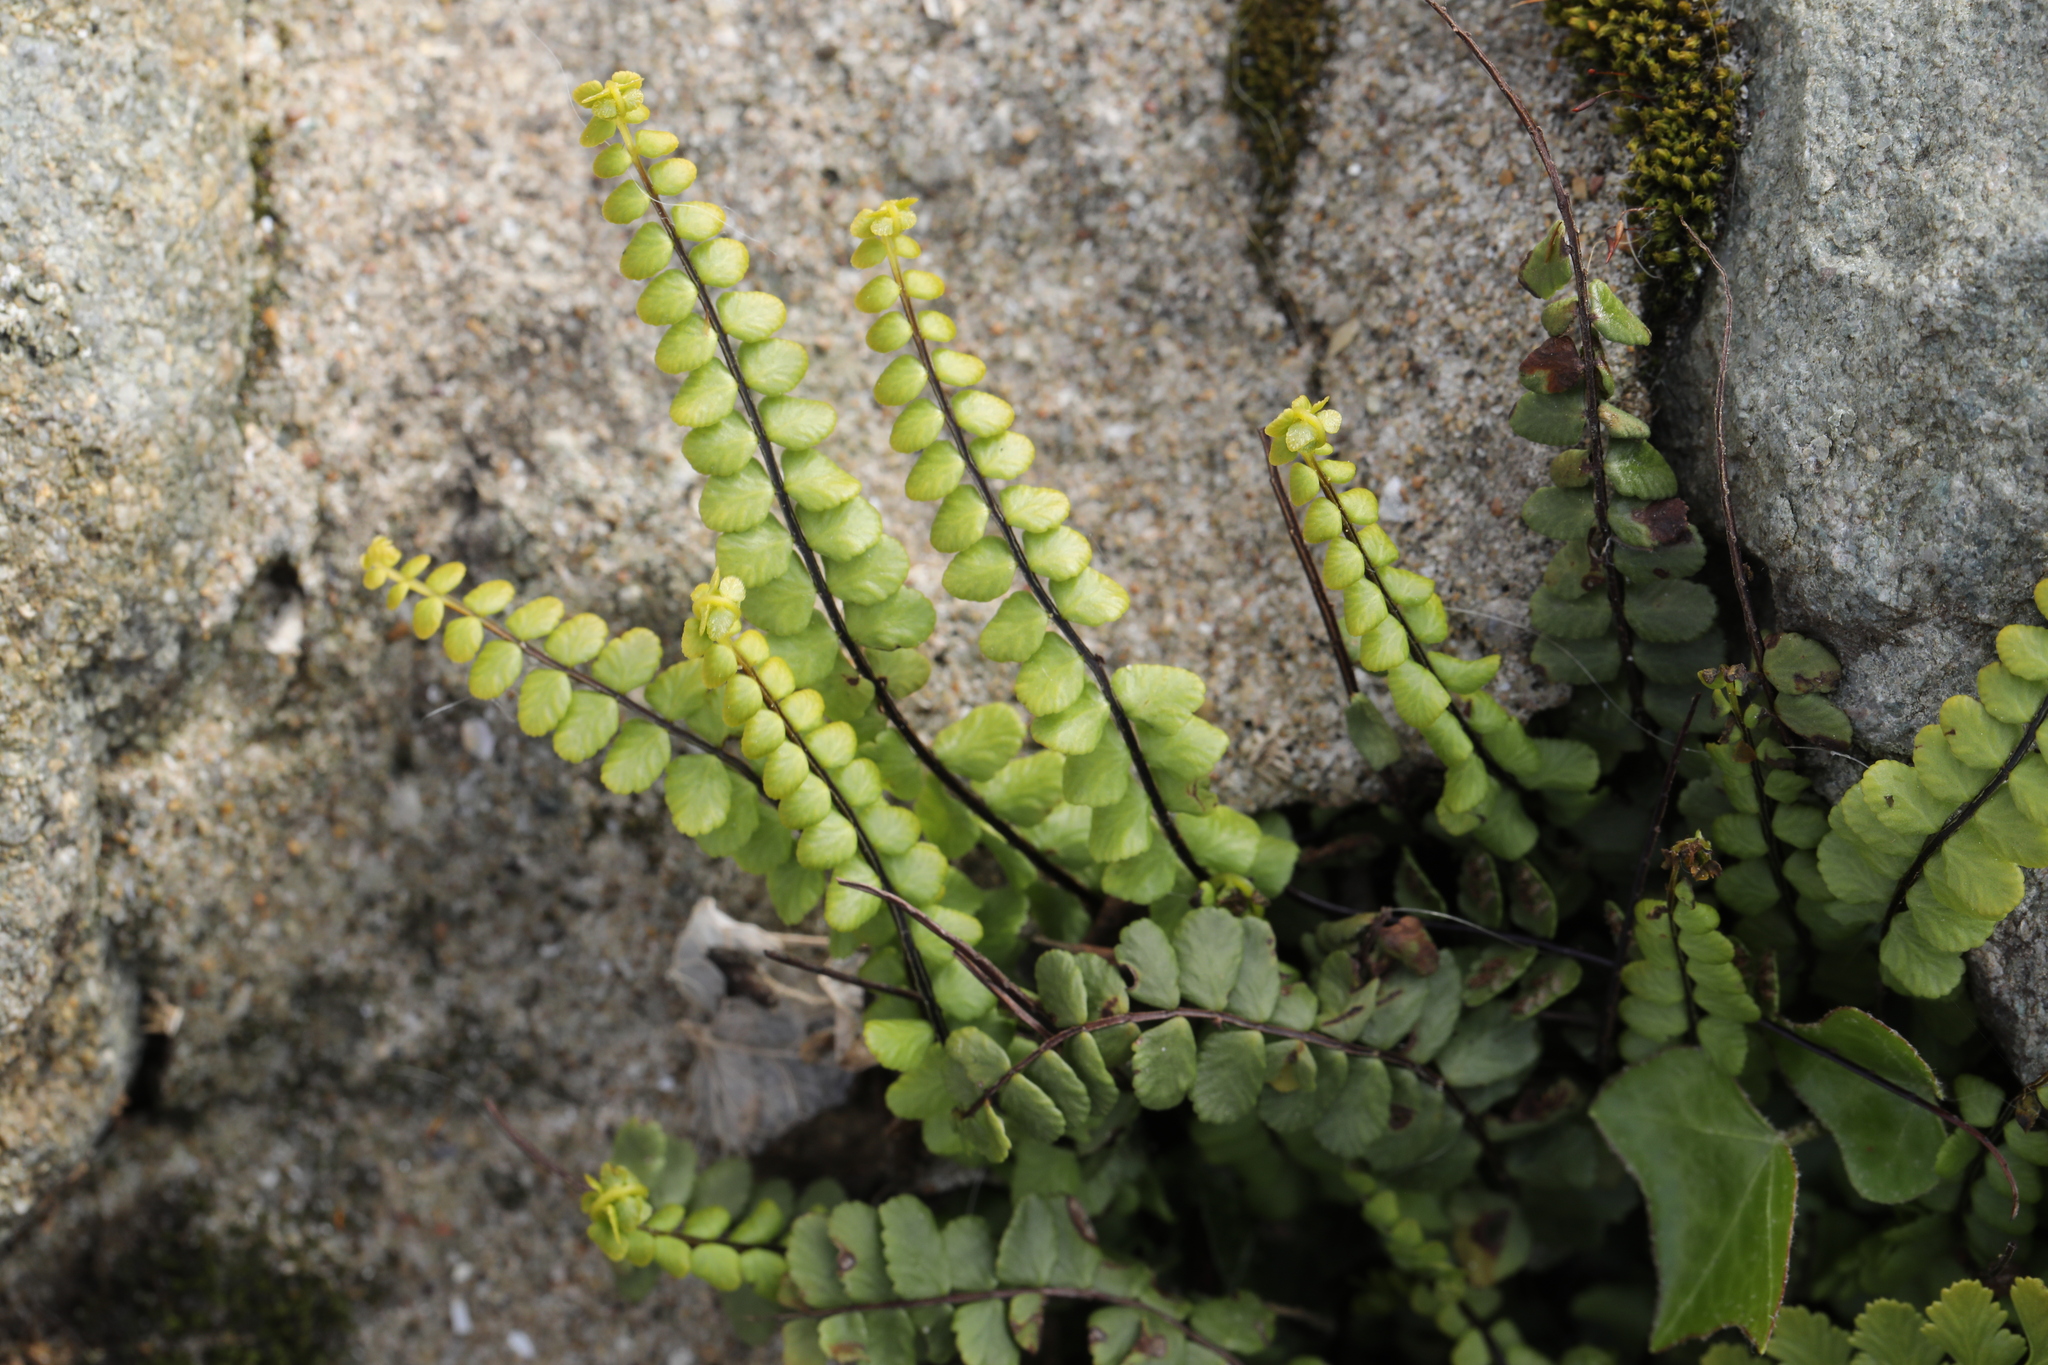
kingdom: Plantae
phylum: Tracheophyta
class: Polypodiopsida
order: Polypodiales
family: Aspleniaceae
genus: Asplenium
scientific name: Asplenium trichomanes
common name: Maidenhair spleenwort
